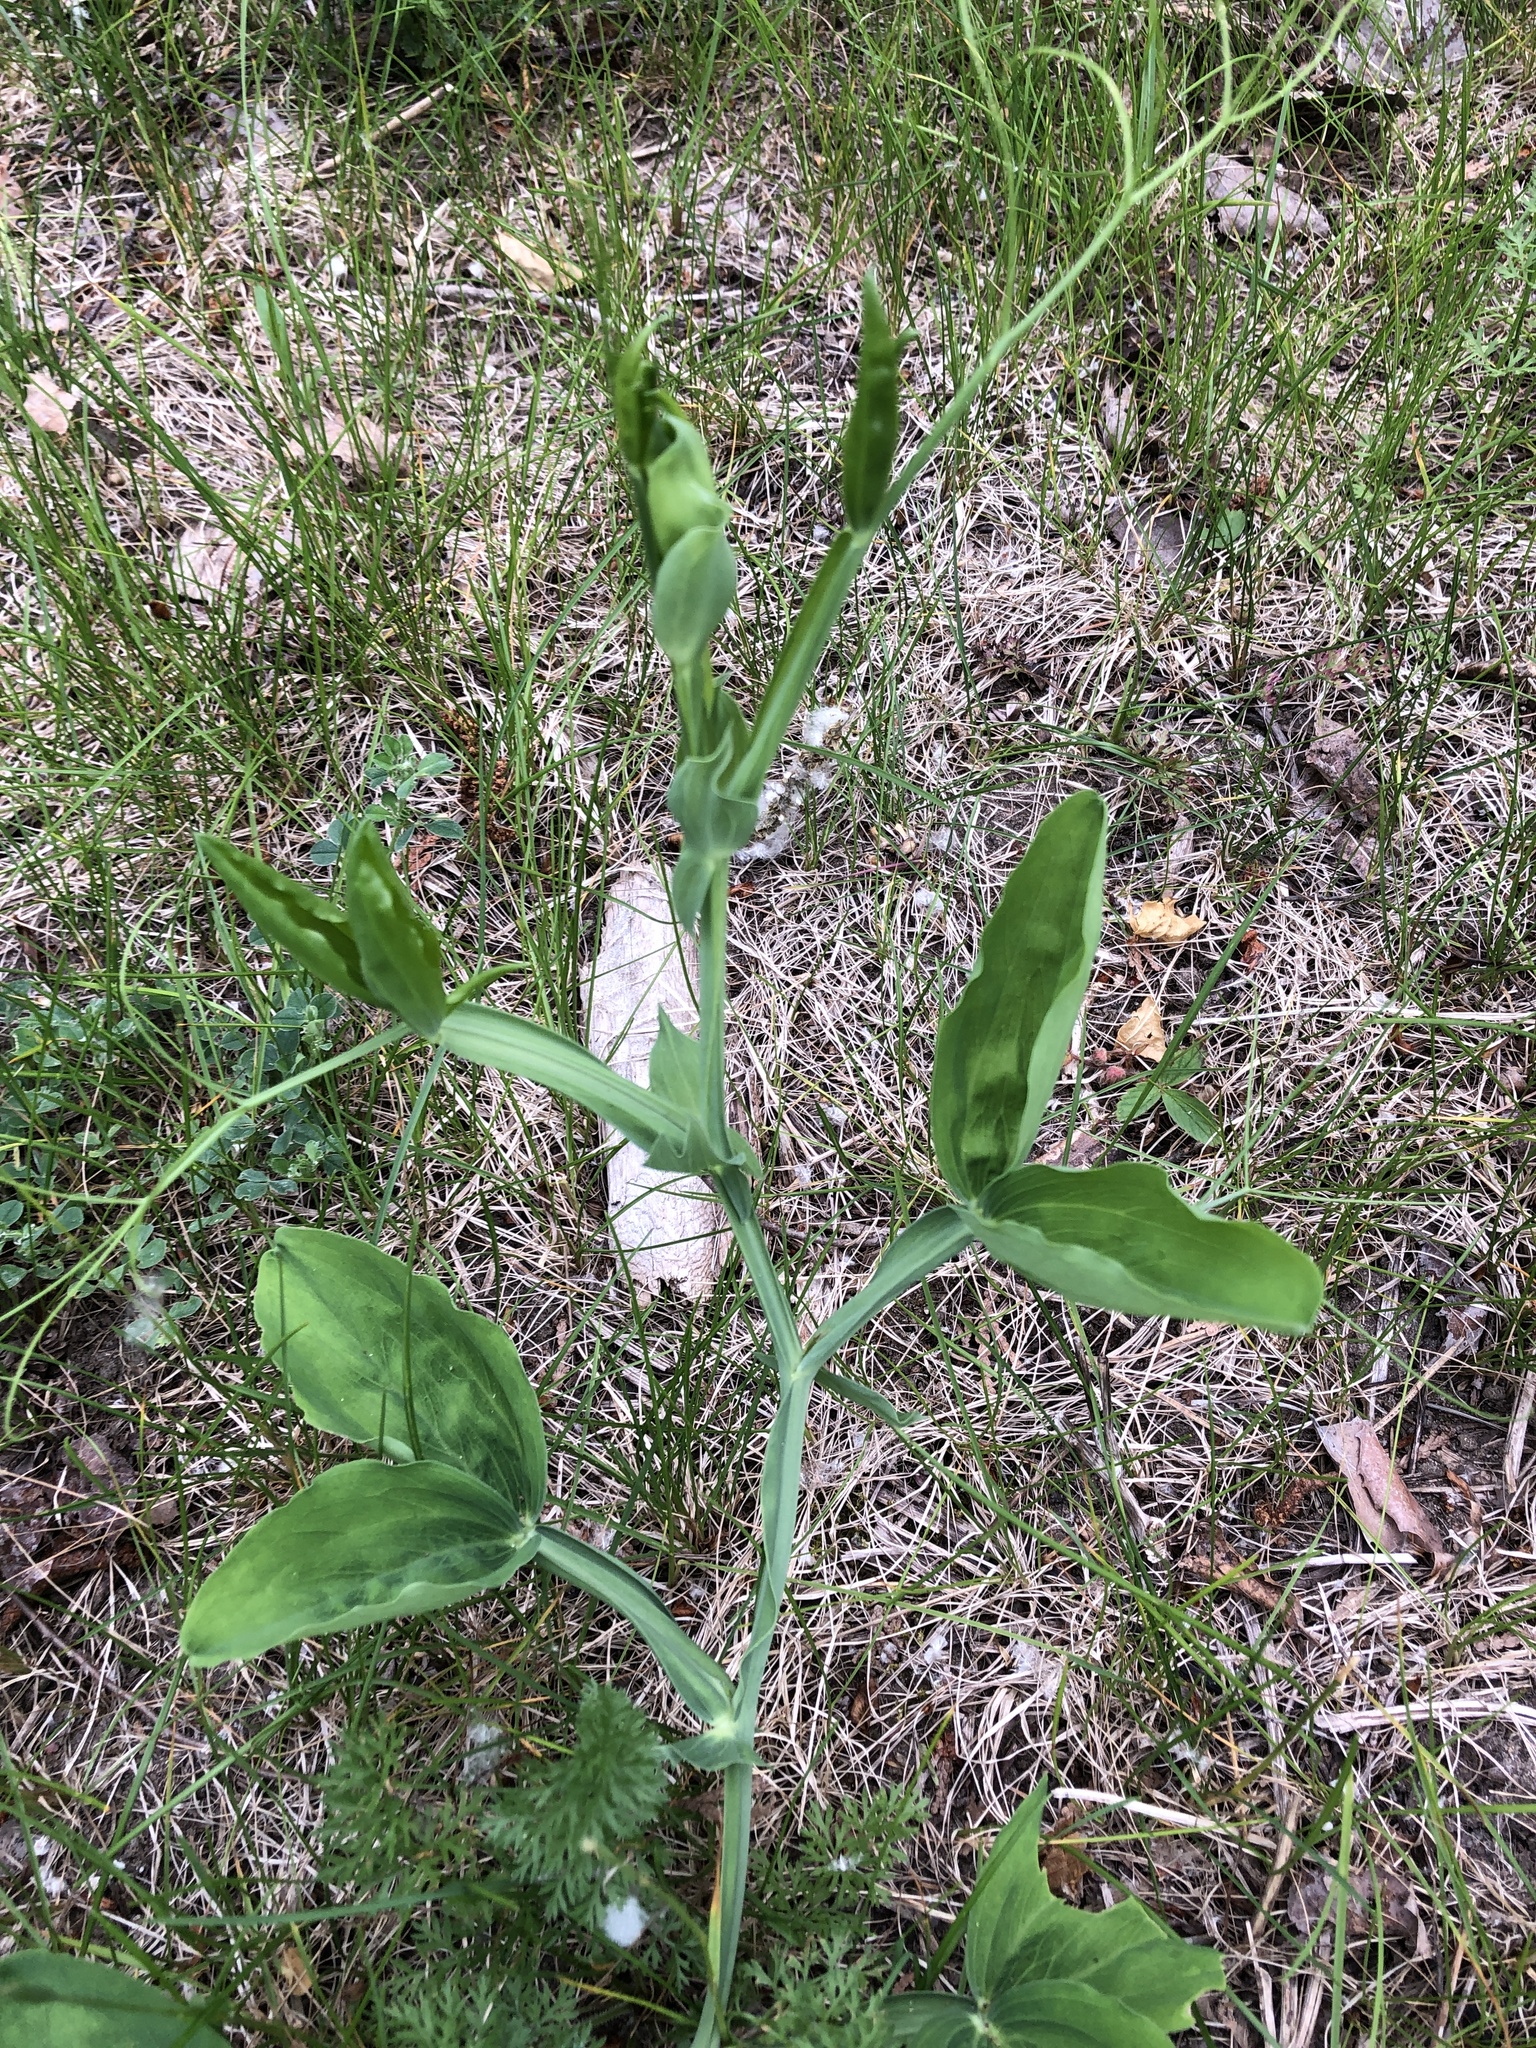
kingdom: Plantae
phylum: Tracheophyta
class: Magnoliopsida
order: Fabales
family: Fabaceae
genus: Lathyrus
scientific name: Lathyrus latifolius
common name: Perennial pea
